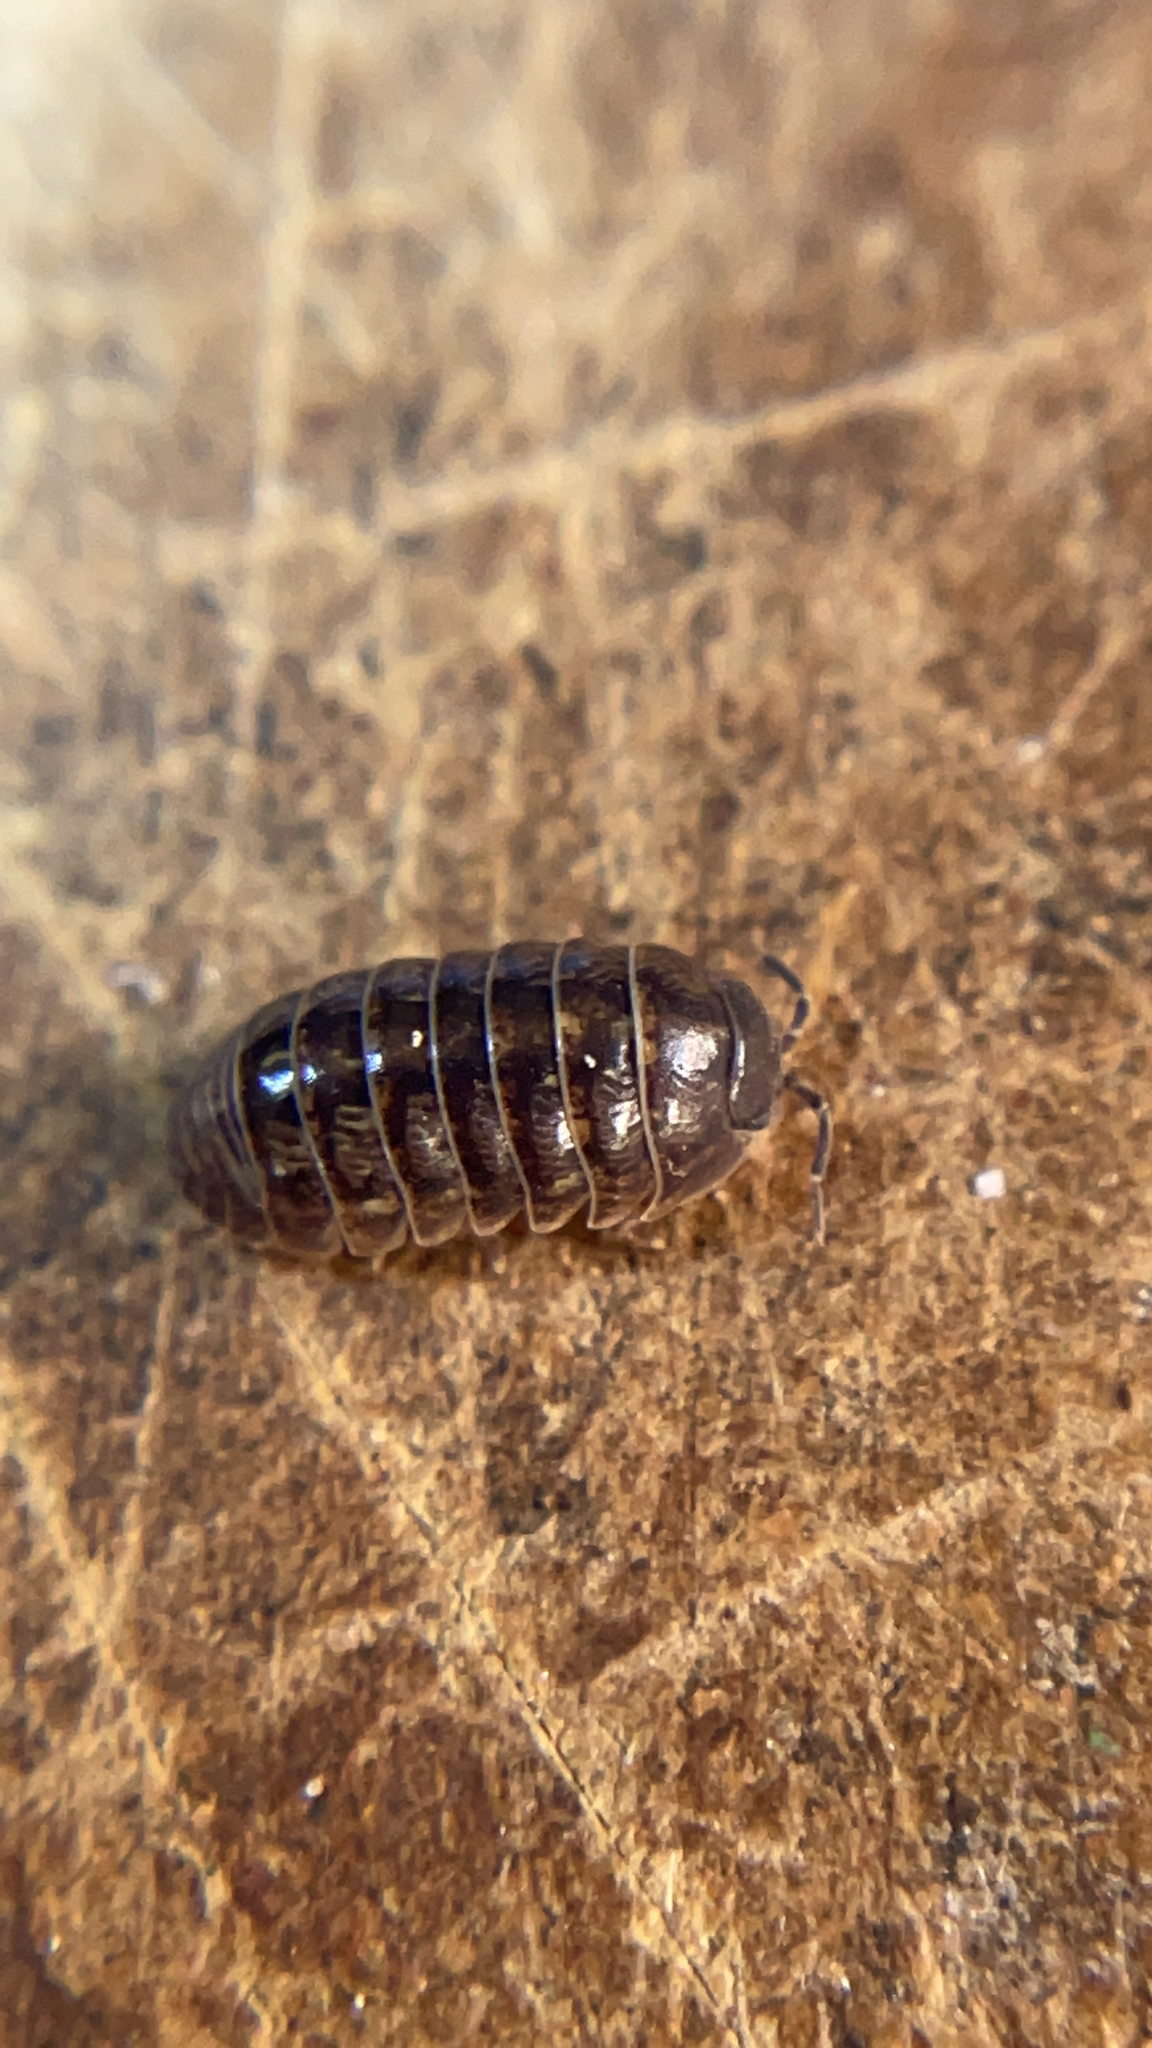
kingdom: Animalia
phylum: Arthropoda
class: Malacostraca
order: Isopoda
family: Armadillidiidae
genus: Armadillidium
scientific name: Armadillidium vulgare
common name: Common pill woodlouse
